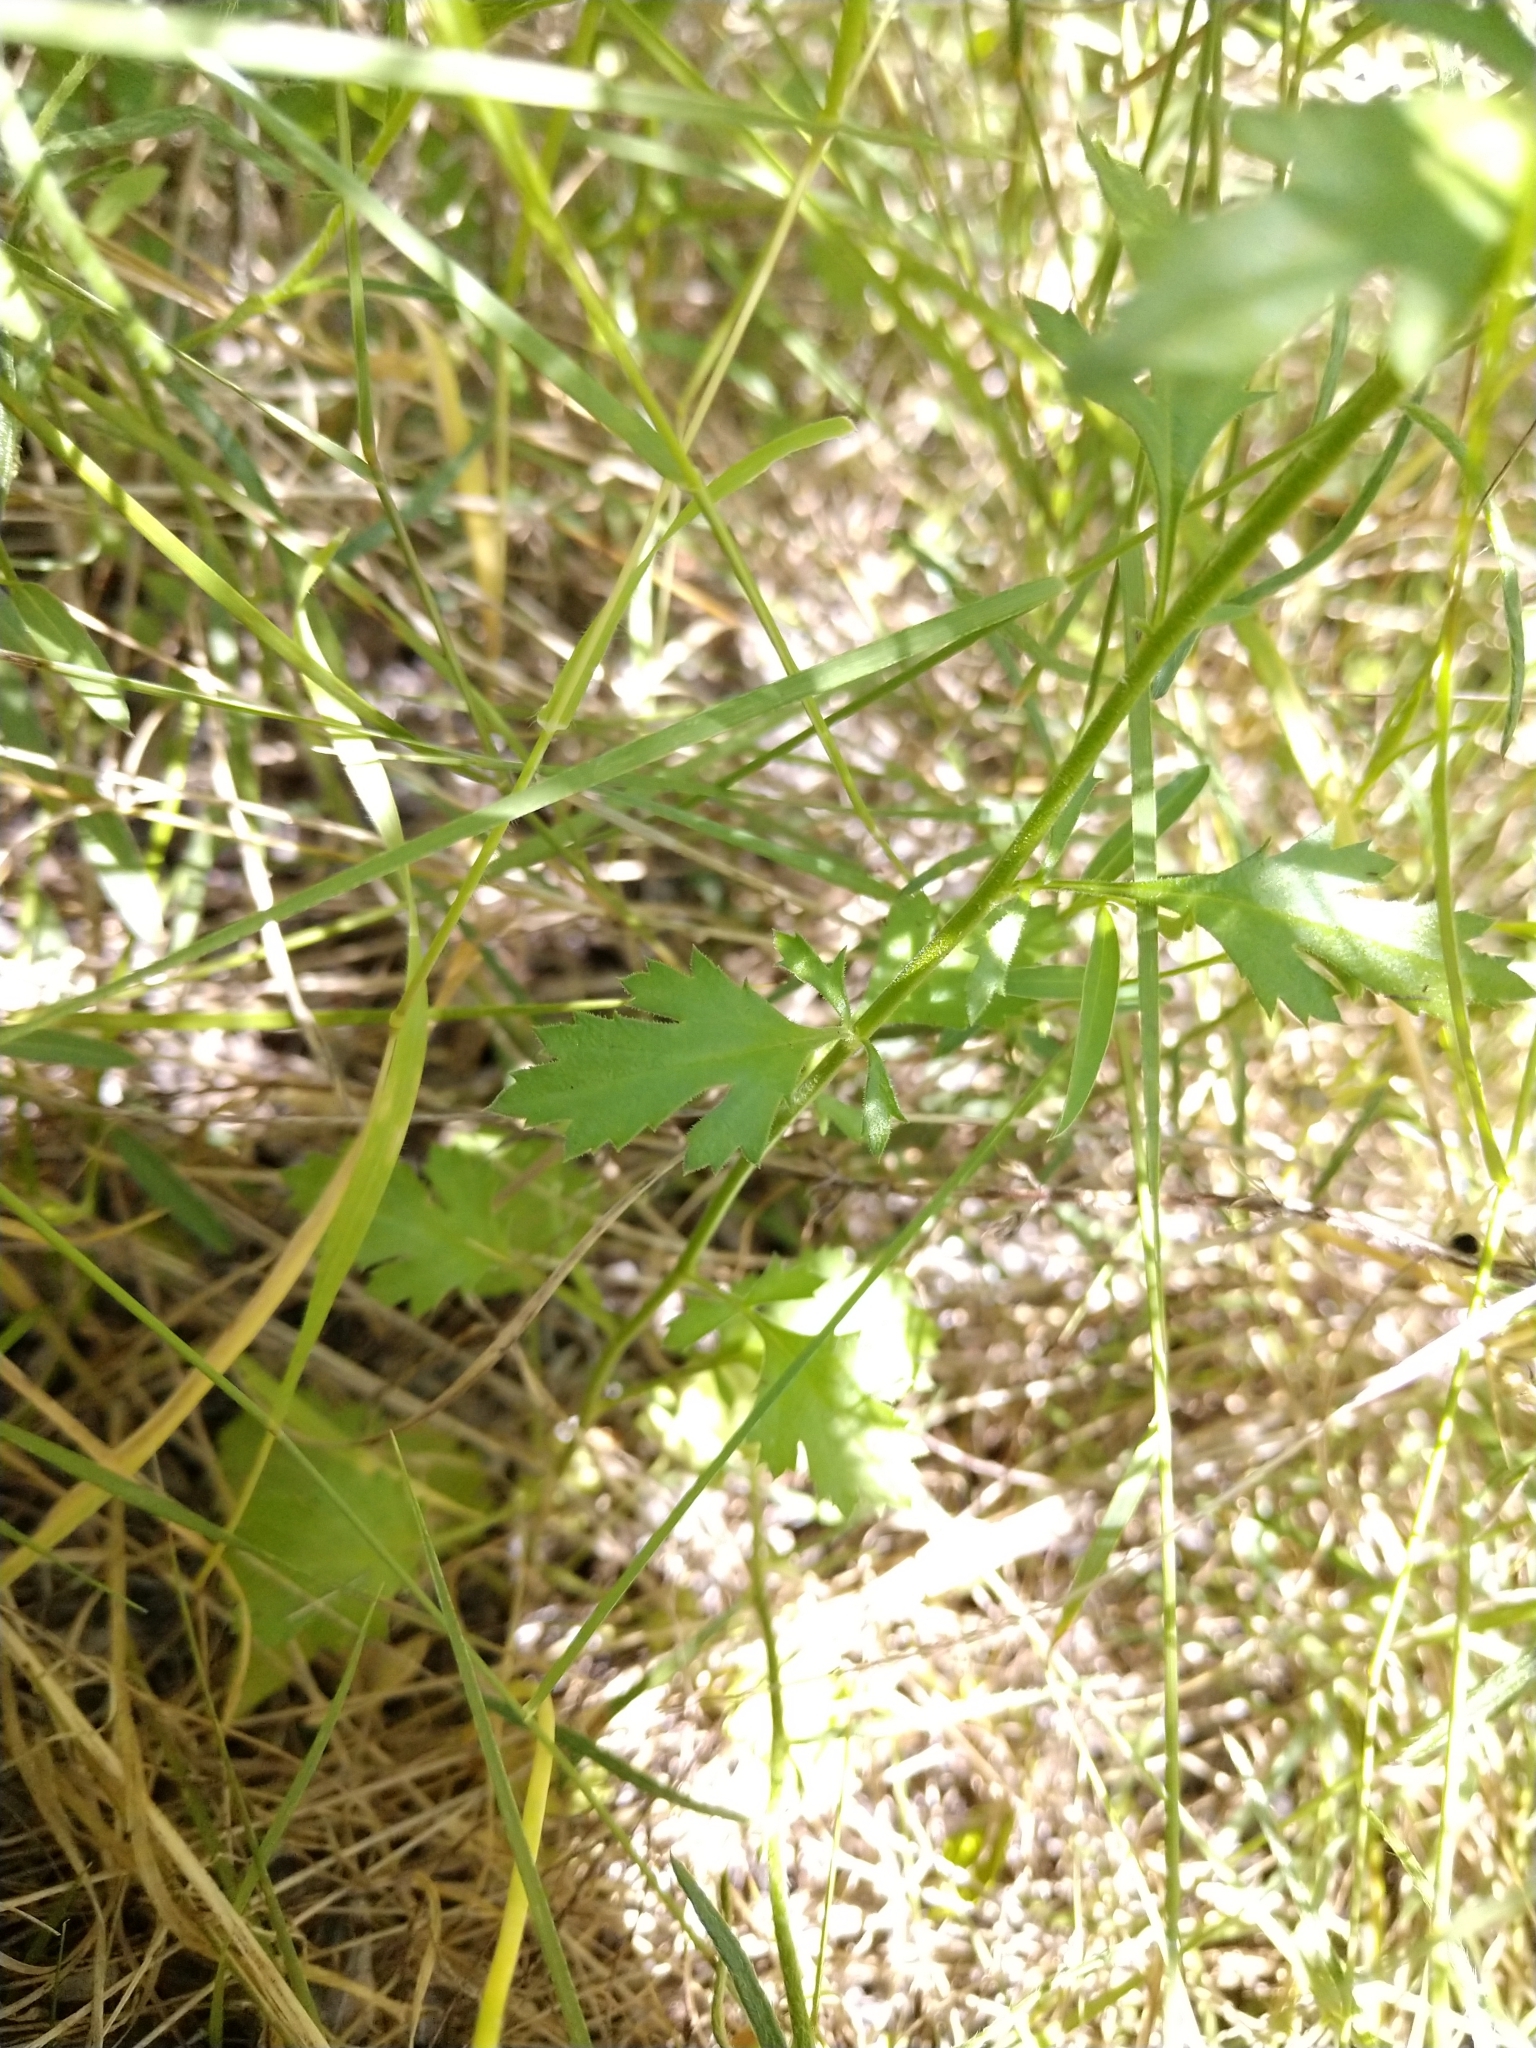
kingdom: Plantae
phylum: Tracheophyta
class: Magnoliopsida
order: Ericales
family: Polemoniaceae
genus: Giliastrum
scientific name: Giliastrum incisum
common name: Splitleaf gilia
